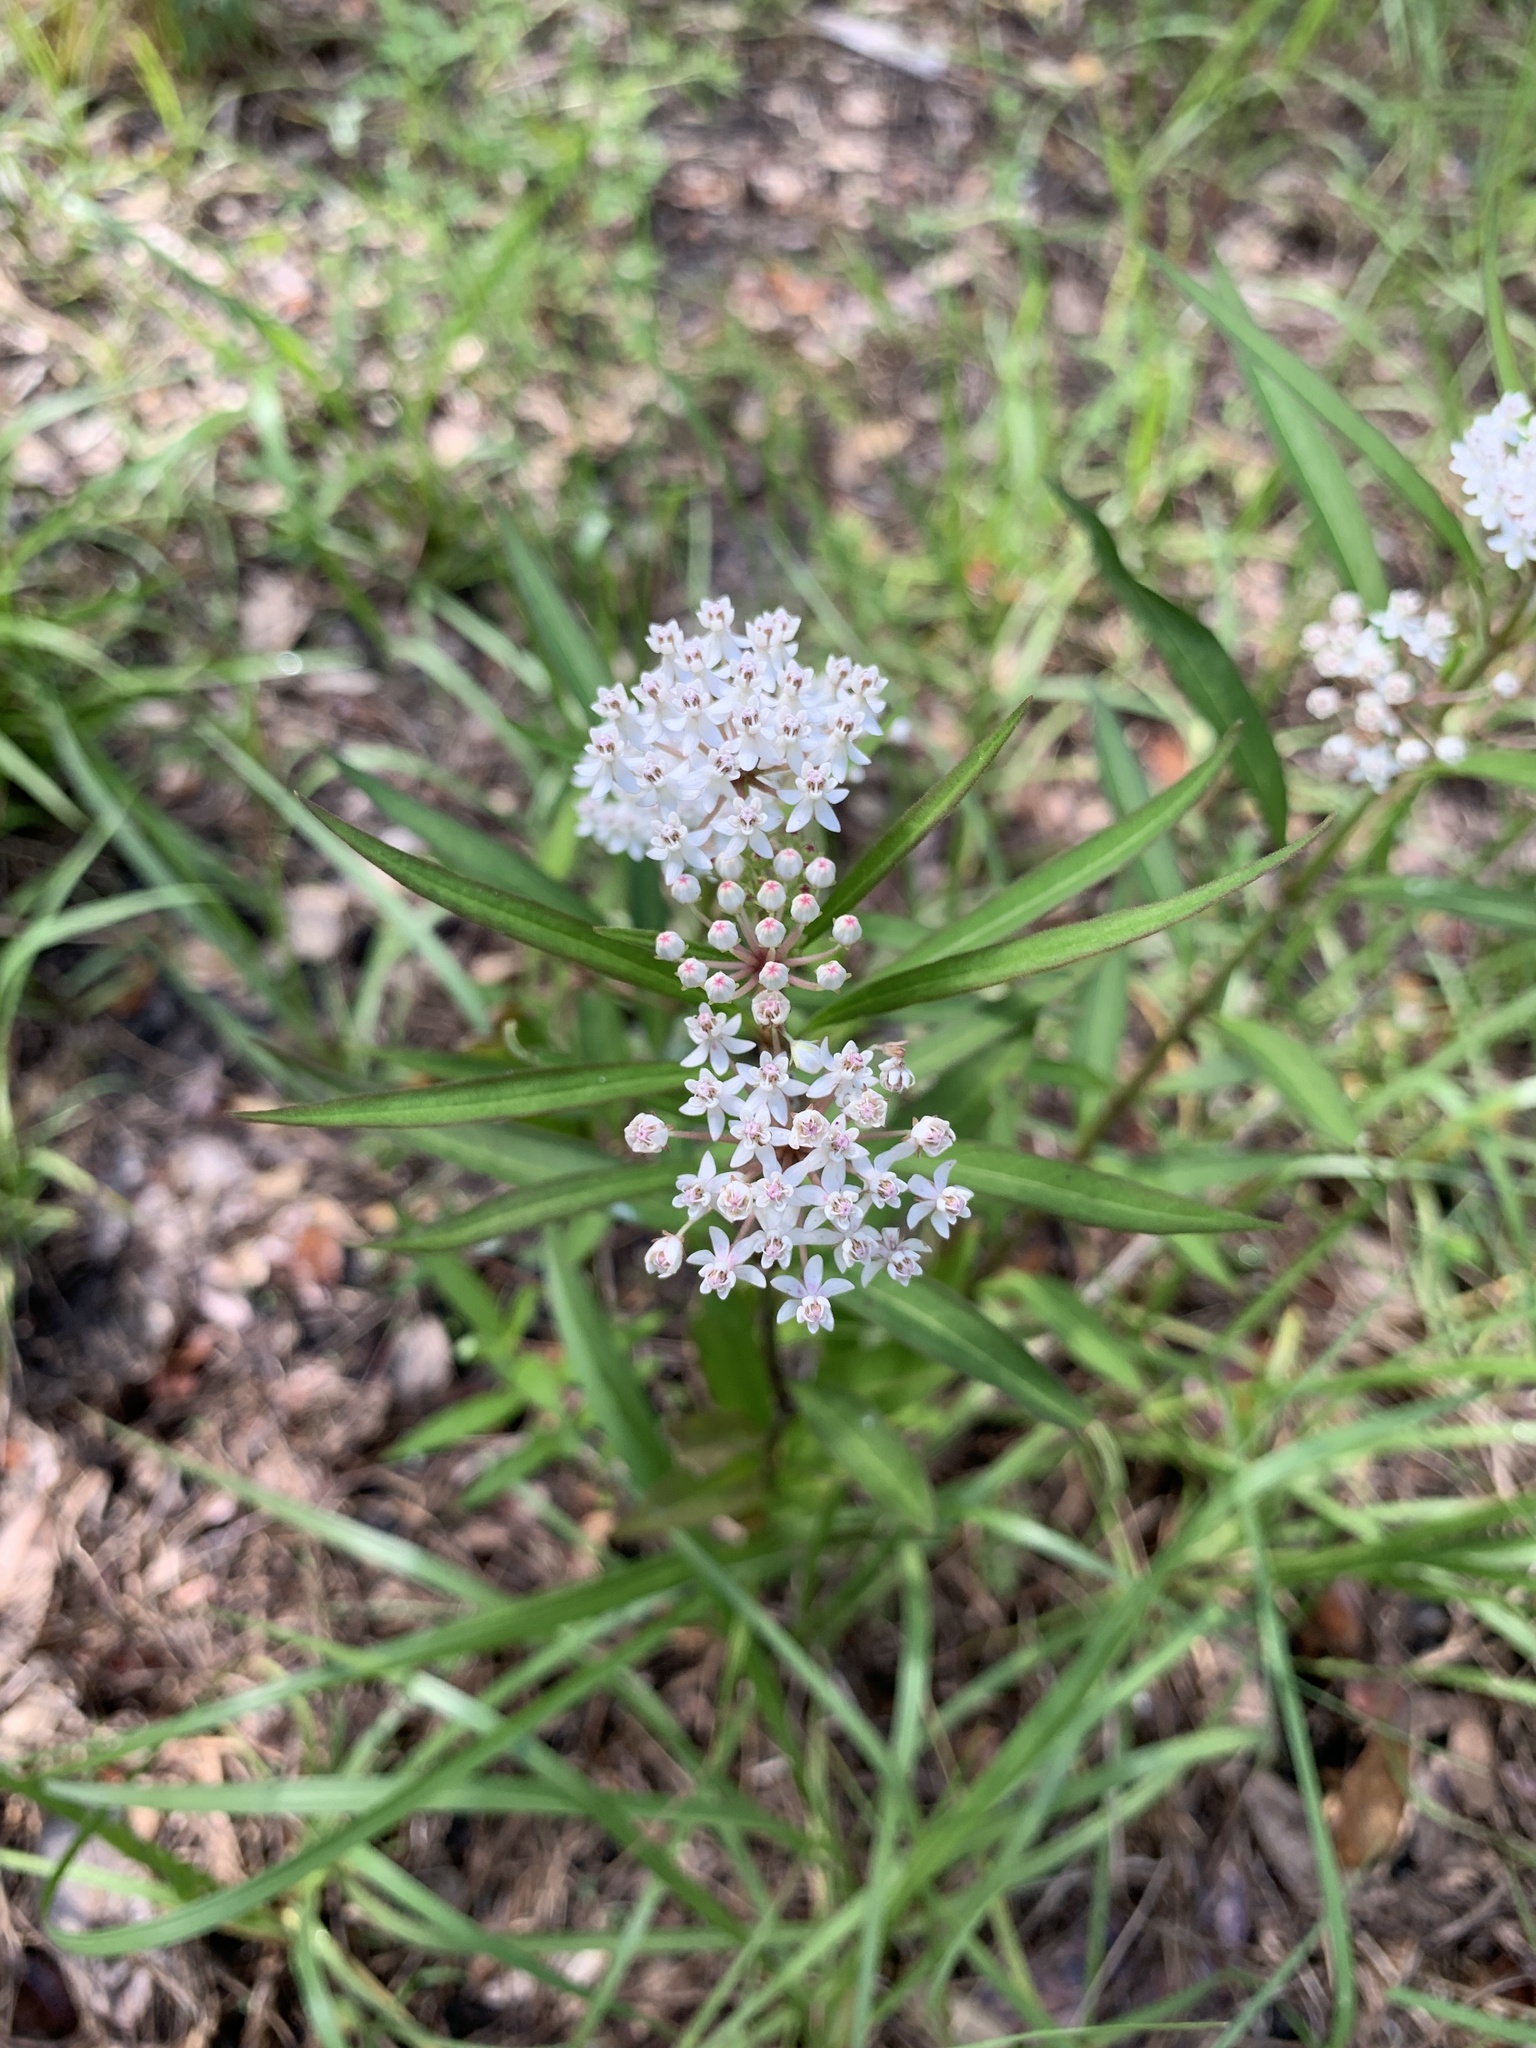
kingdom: Plantae
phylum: Tracheophyta
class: Magnoliopsida
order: Gentianales
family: Apocynaceae
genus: Asclepias
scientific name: Asclepias perennis
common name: Smooth-seed milkweed
